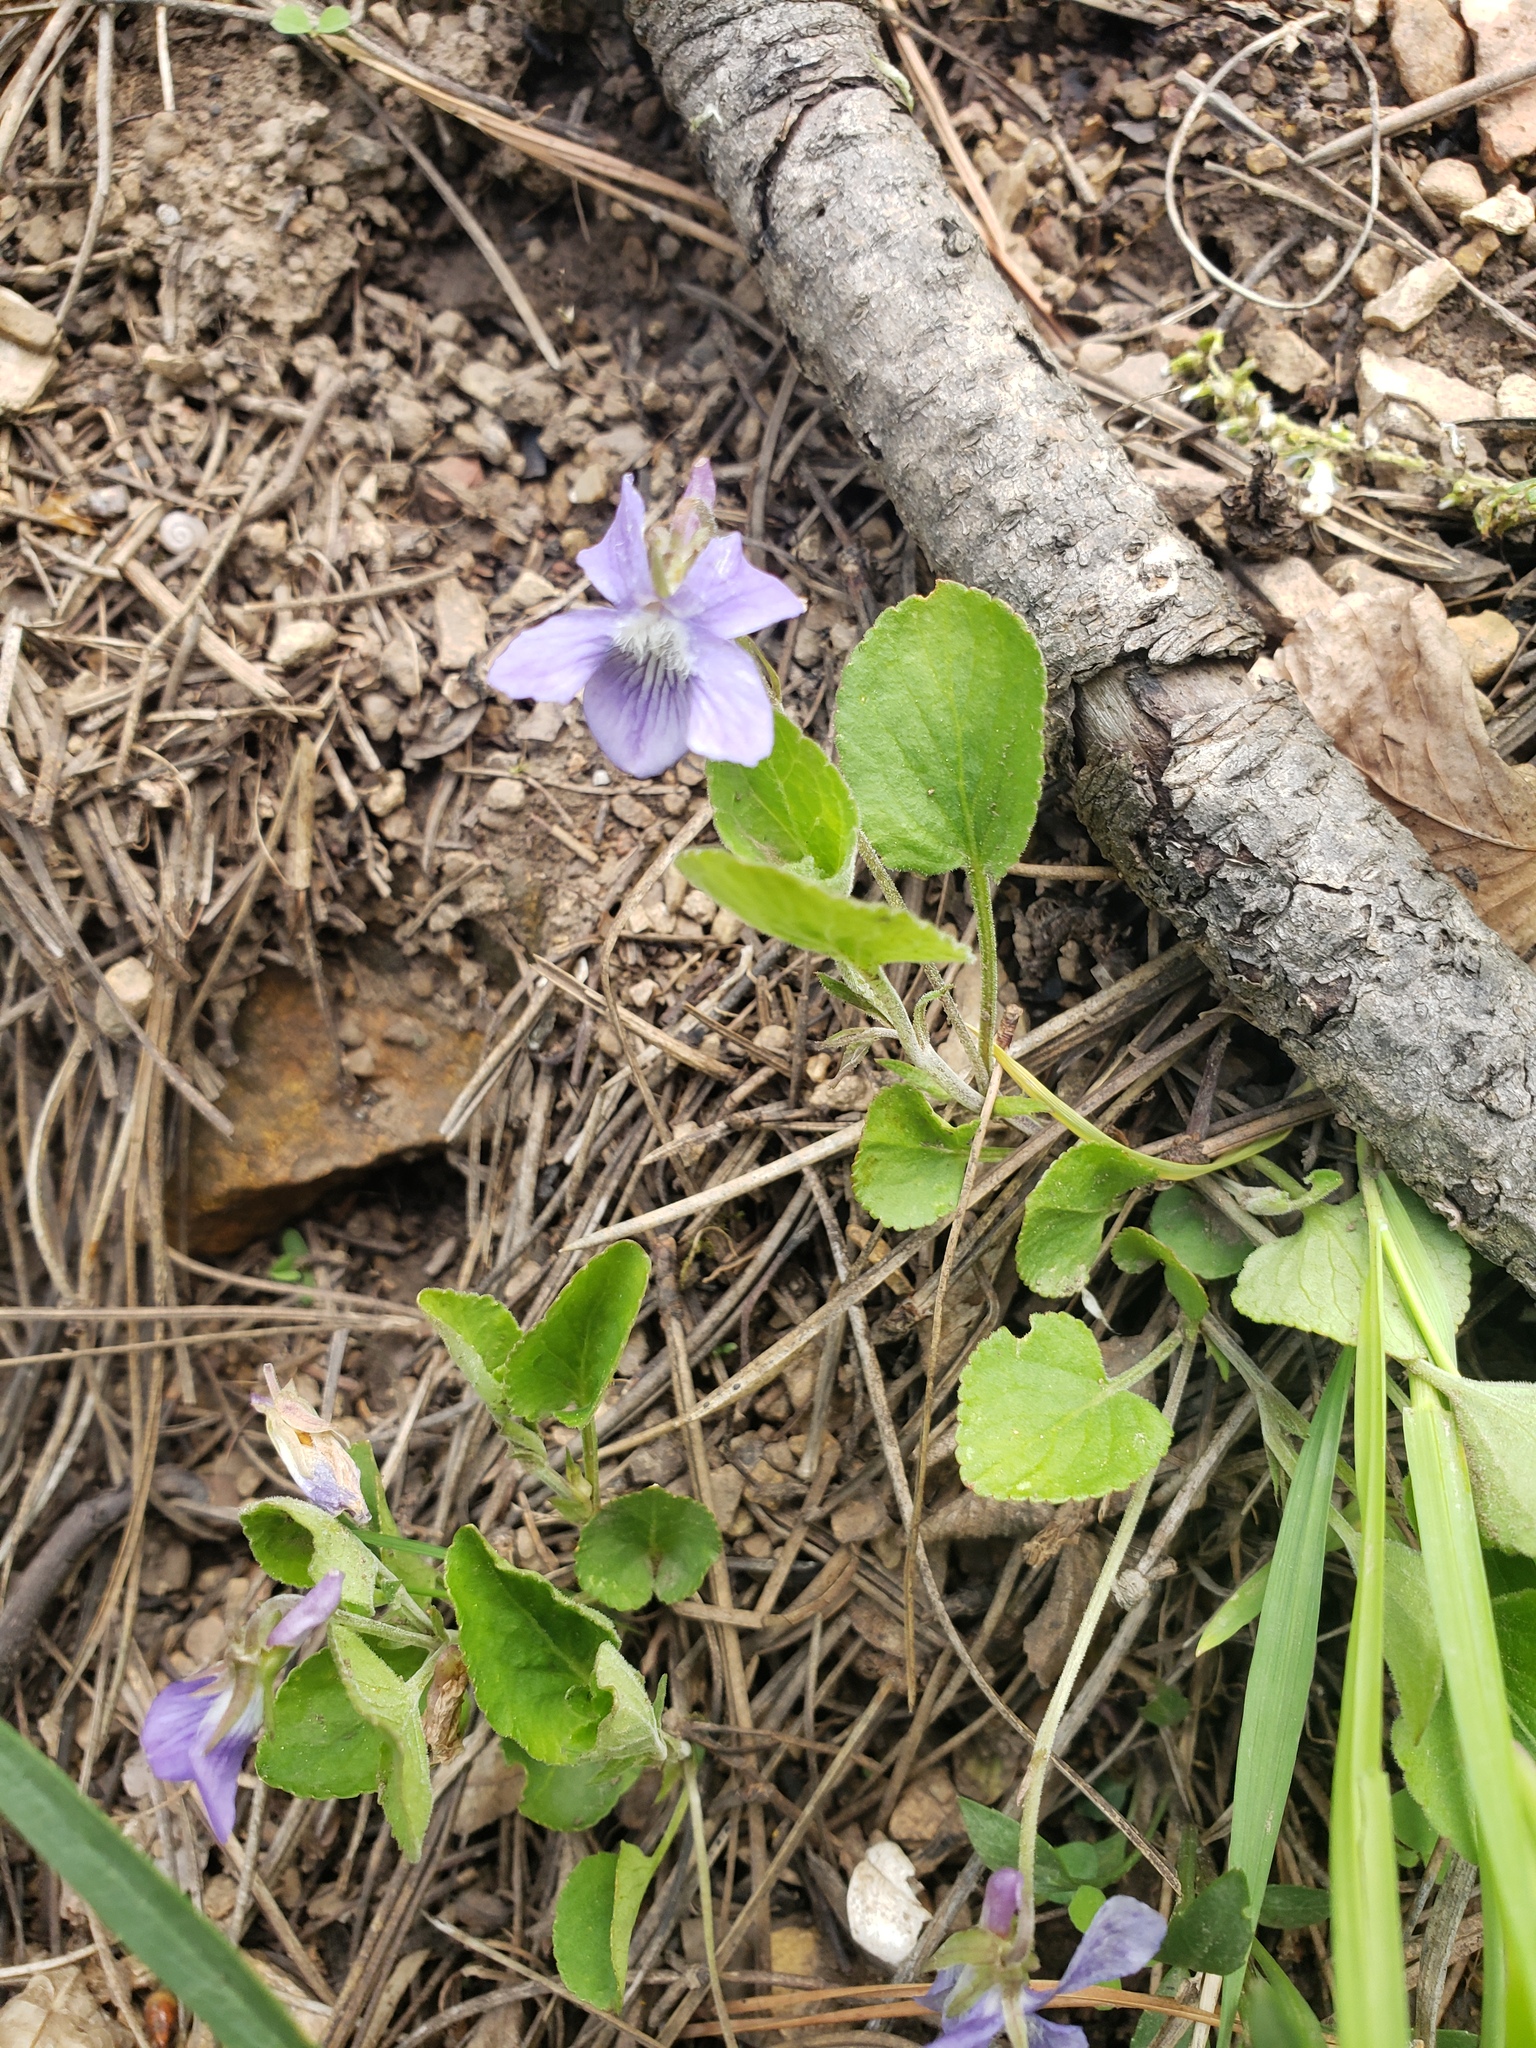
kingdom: Plantae
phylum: Tracheophyta
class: Magnoliopsida
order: Malpighiales
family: Violaceae
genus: Viola
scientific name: Viola adunca
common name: Sand violet
